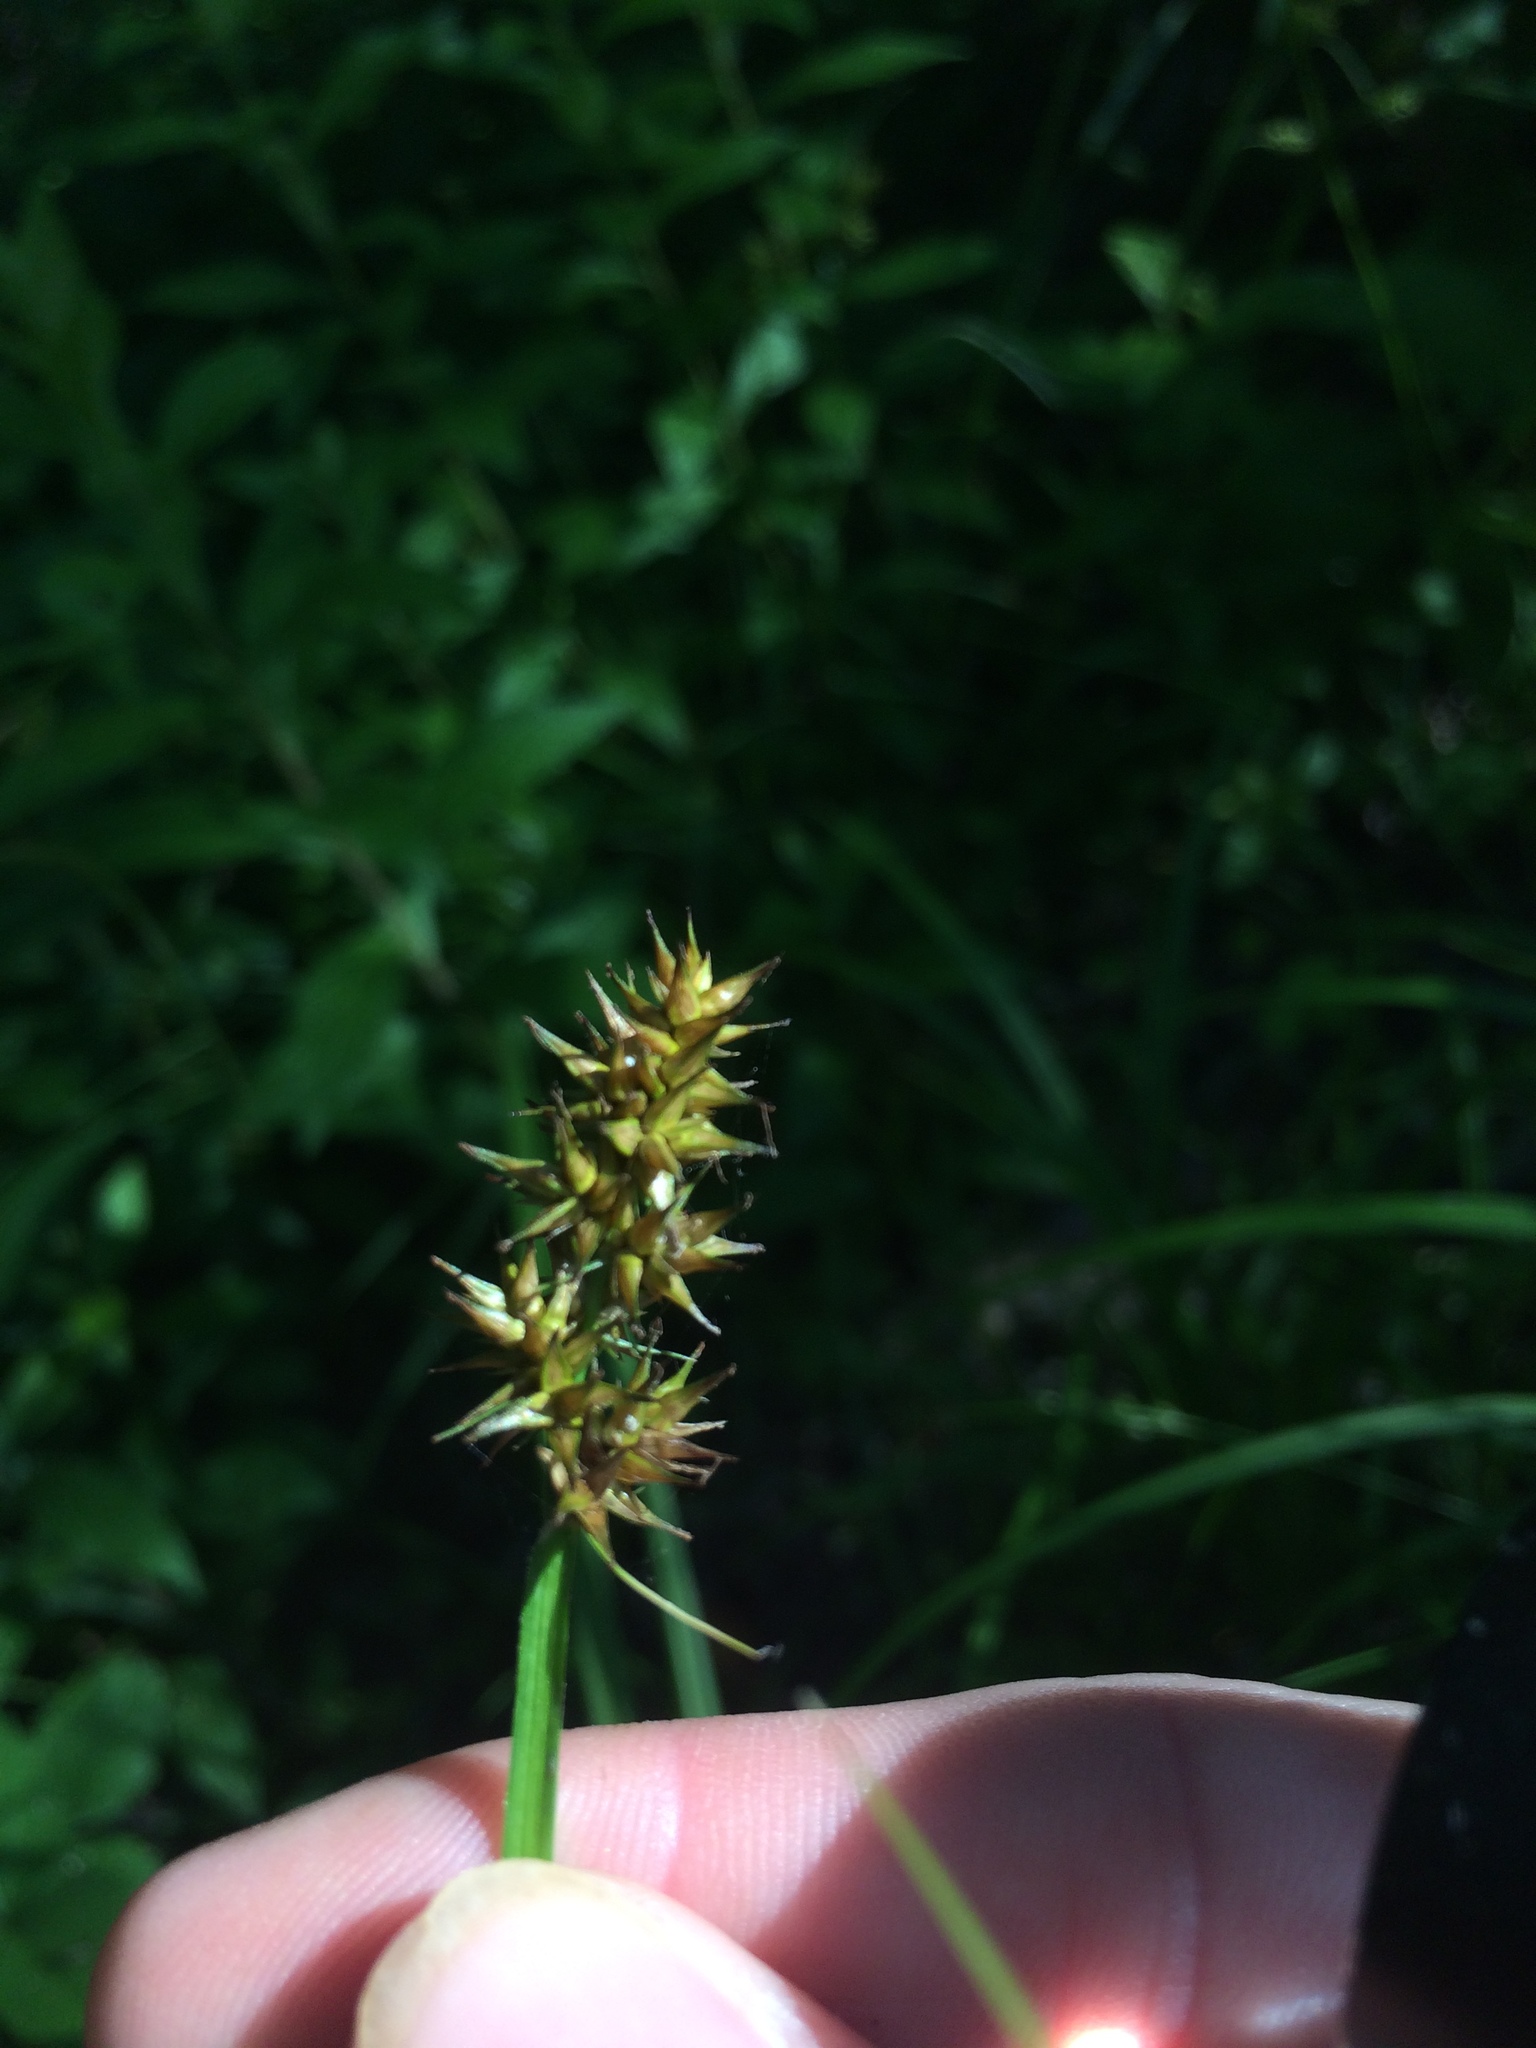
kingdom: Plantae
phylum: Tracheophyta
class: Liliopsida
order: Poales
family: Cyperaceae
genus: Carex
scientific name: Carex stipata
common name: Awl-fruited sedge
